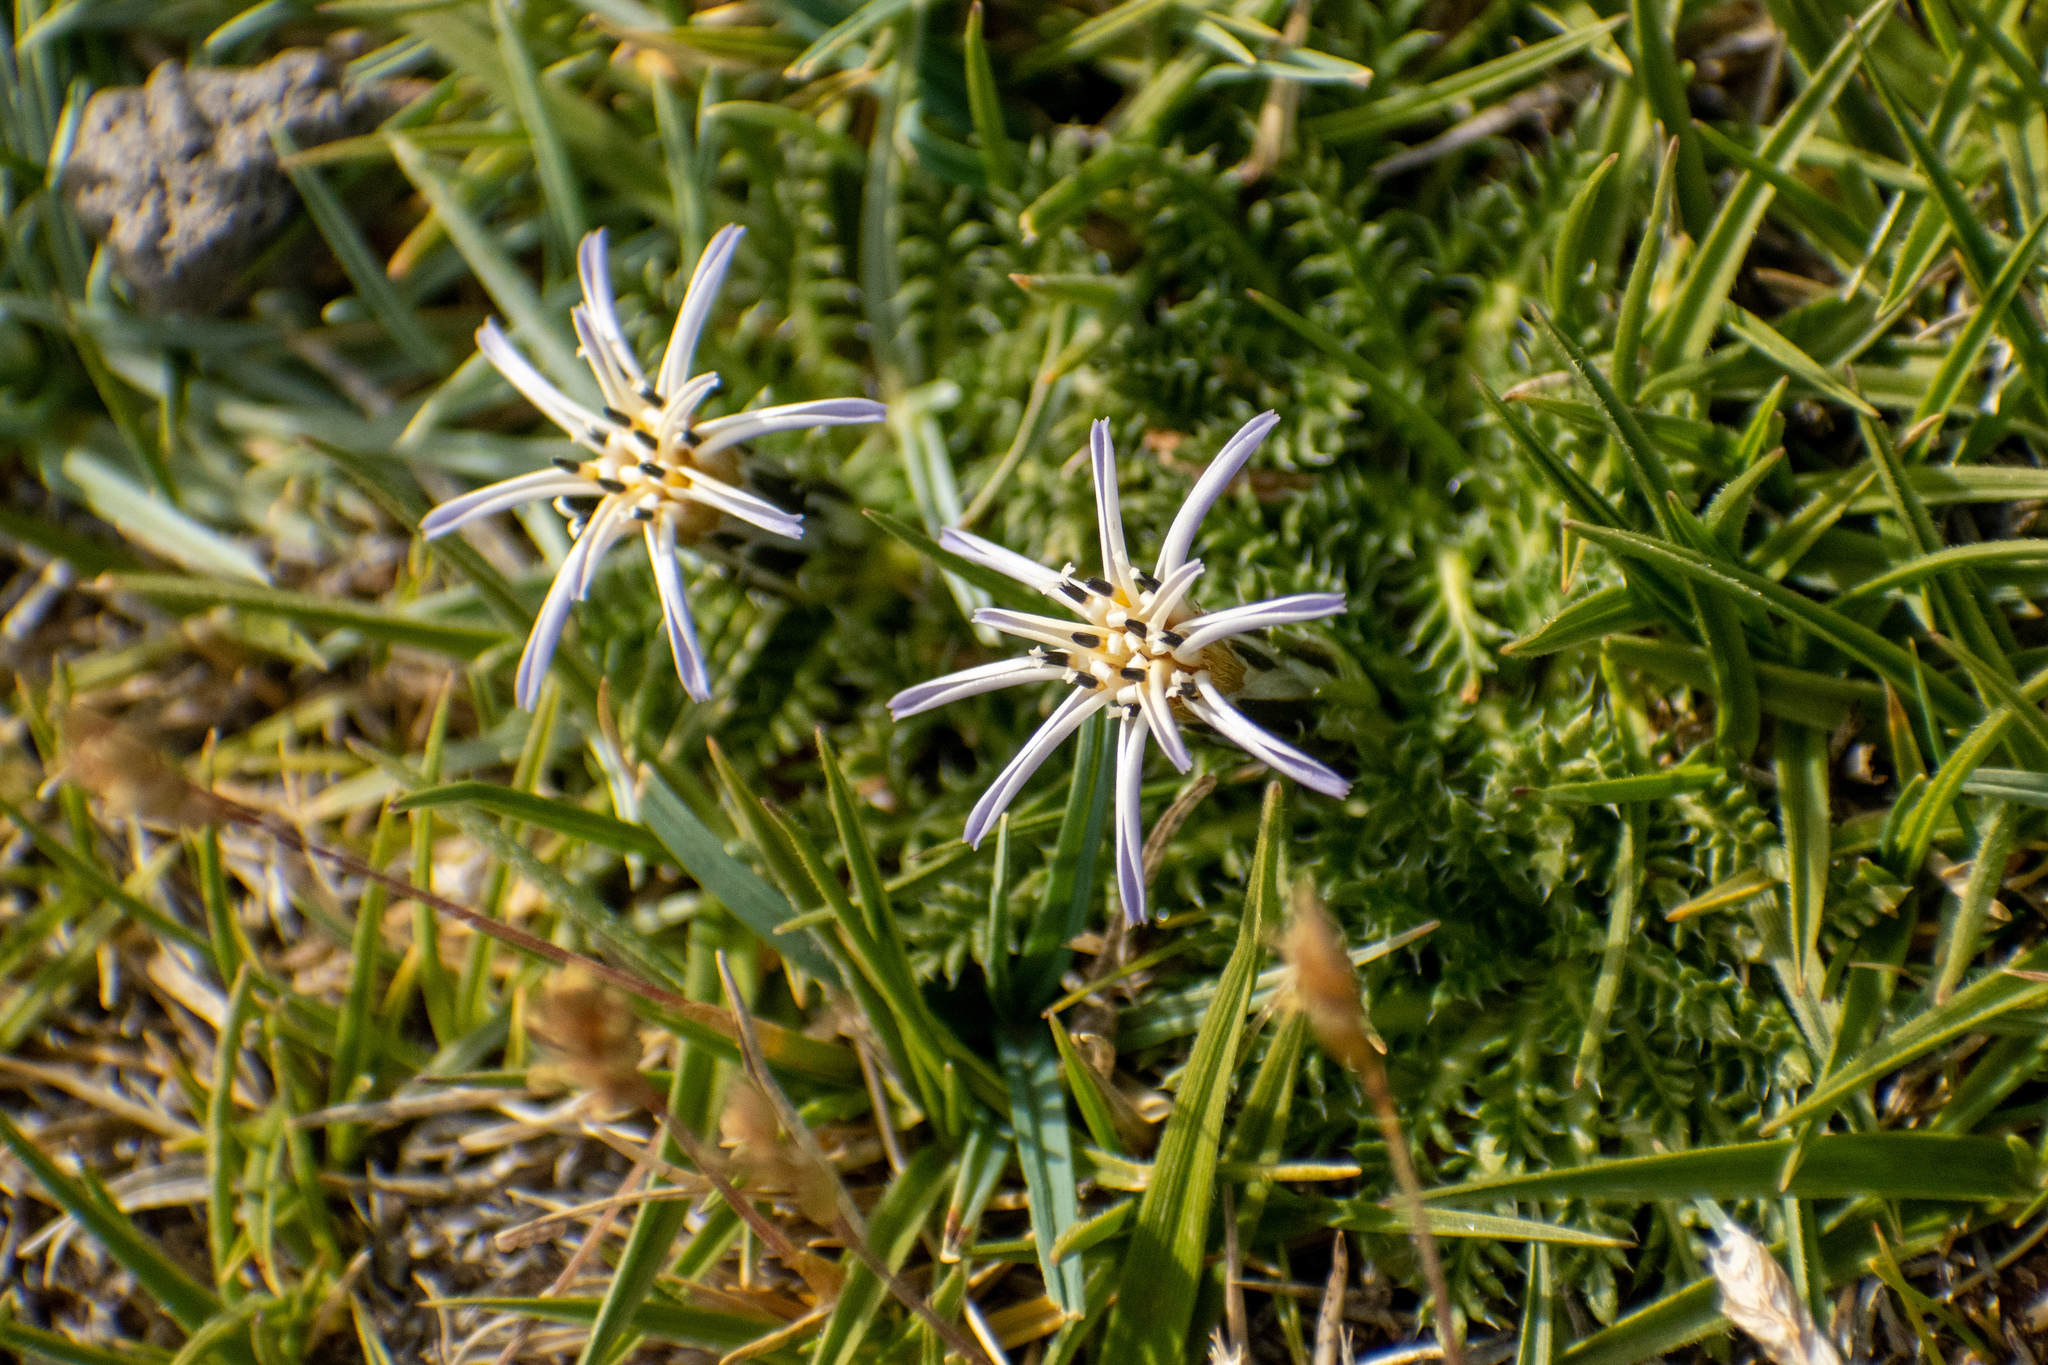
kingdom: Plantae
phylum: Tracheophyta
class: Magnoliopsida
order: Asterales
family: Asteraceae
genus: Perezia
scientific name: Perezia pilifera
